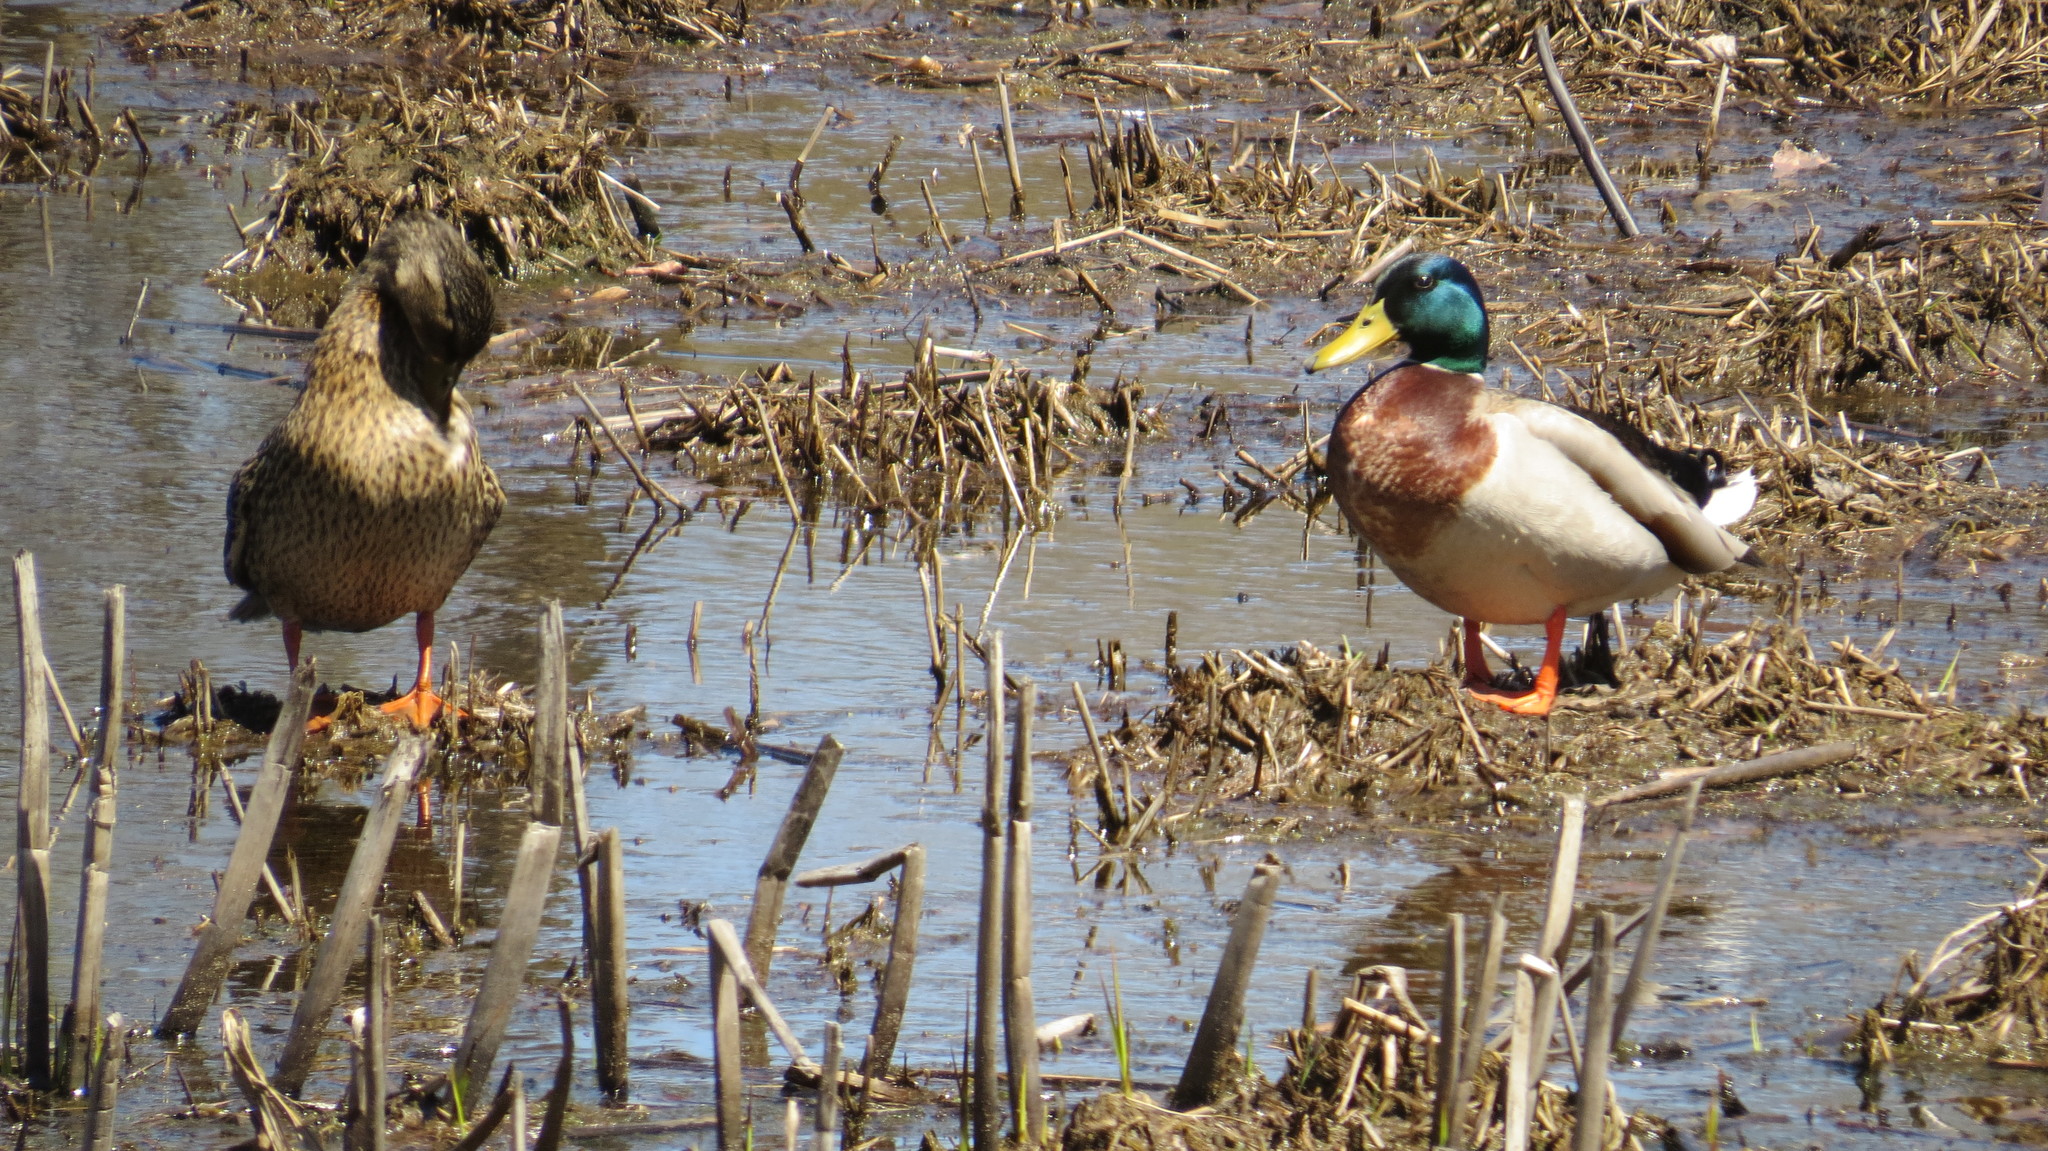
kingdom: Animalia
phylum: Chordata
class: Aves
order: Anseriformes
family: Anatidae
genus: Anas
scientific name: Anas platyrhynchos
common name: Mallard
